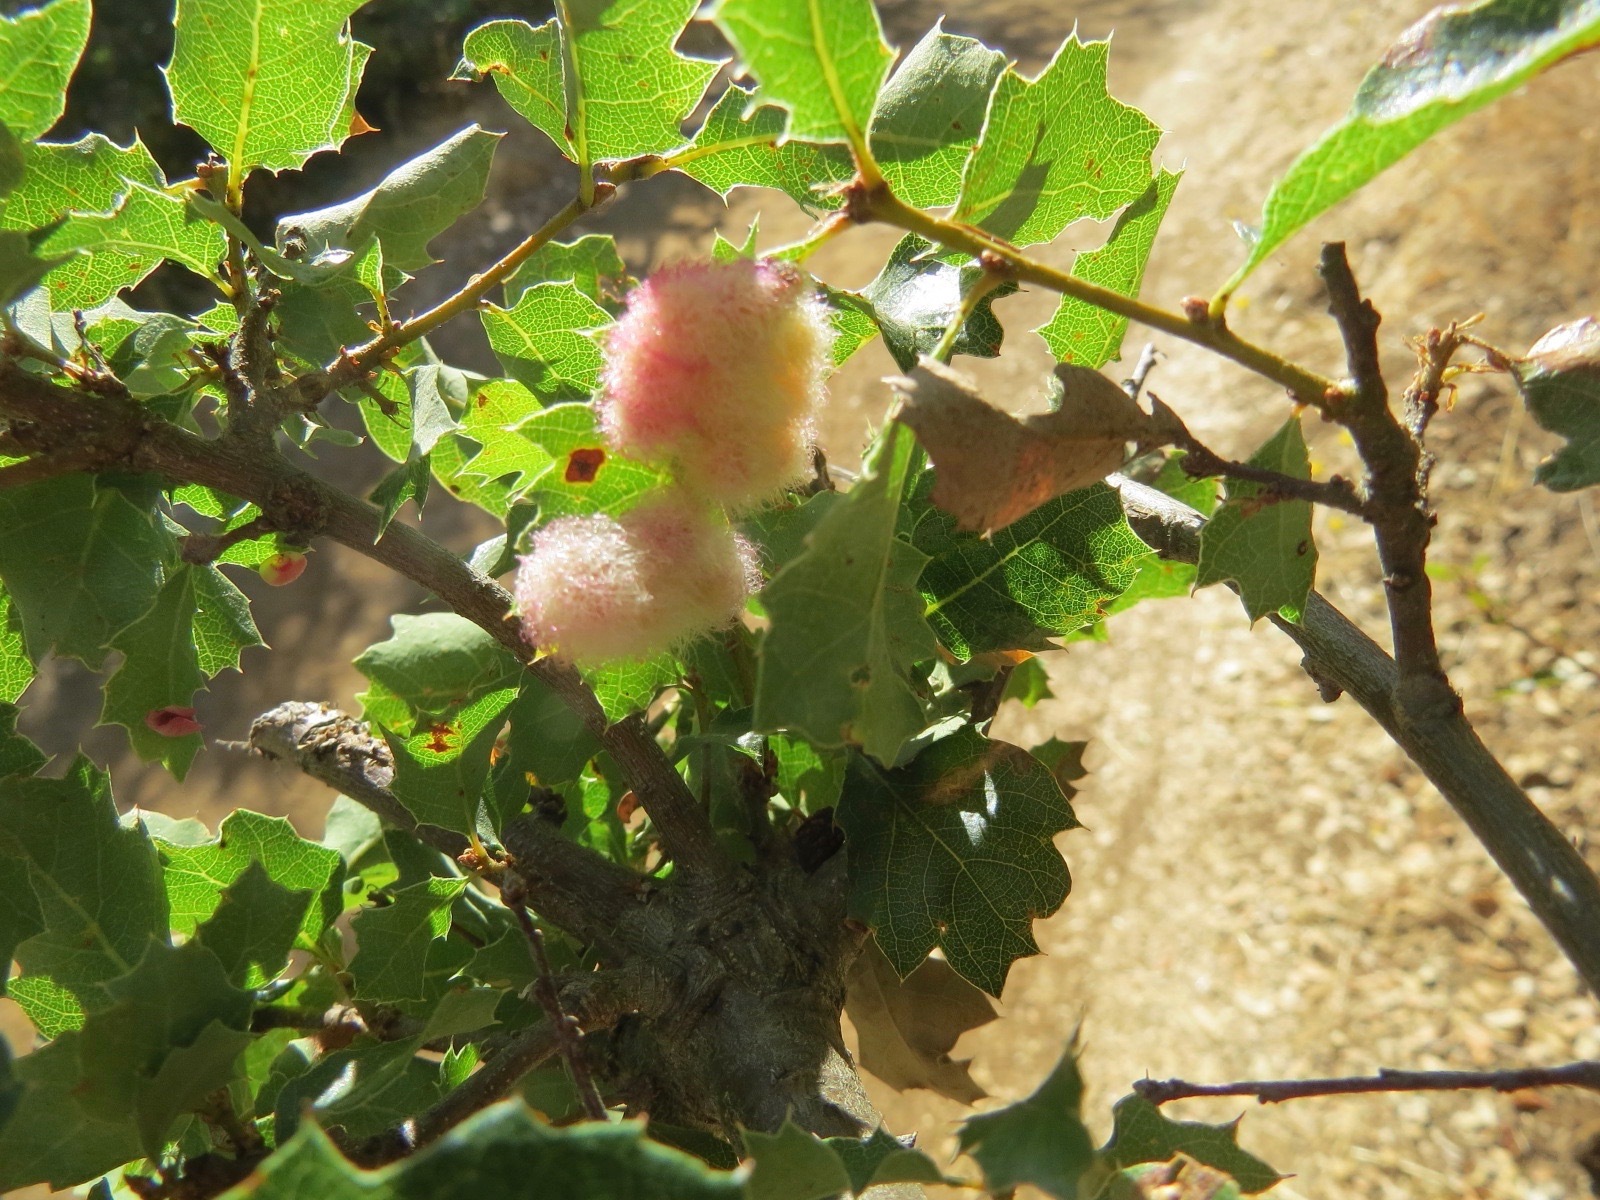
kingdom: Animalia
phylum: Arthropoda
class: Insecta
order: Hymenoptera
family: Cynipidae
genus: Andricus
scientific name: Andricus
